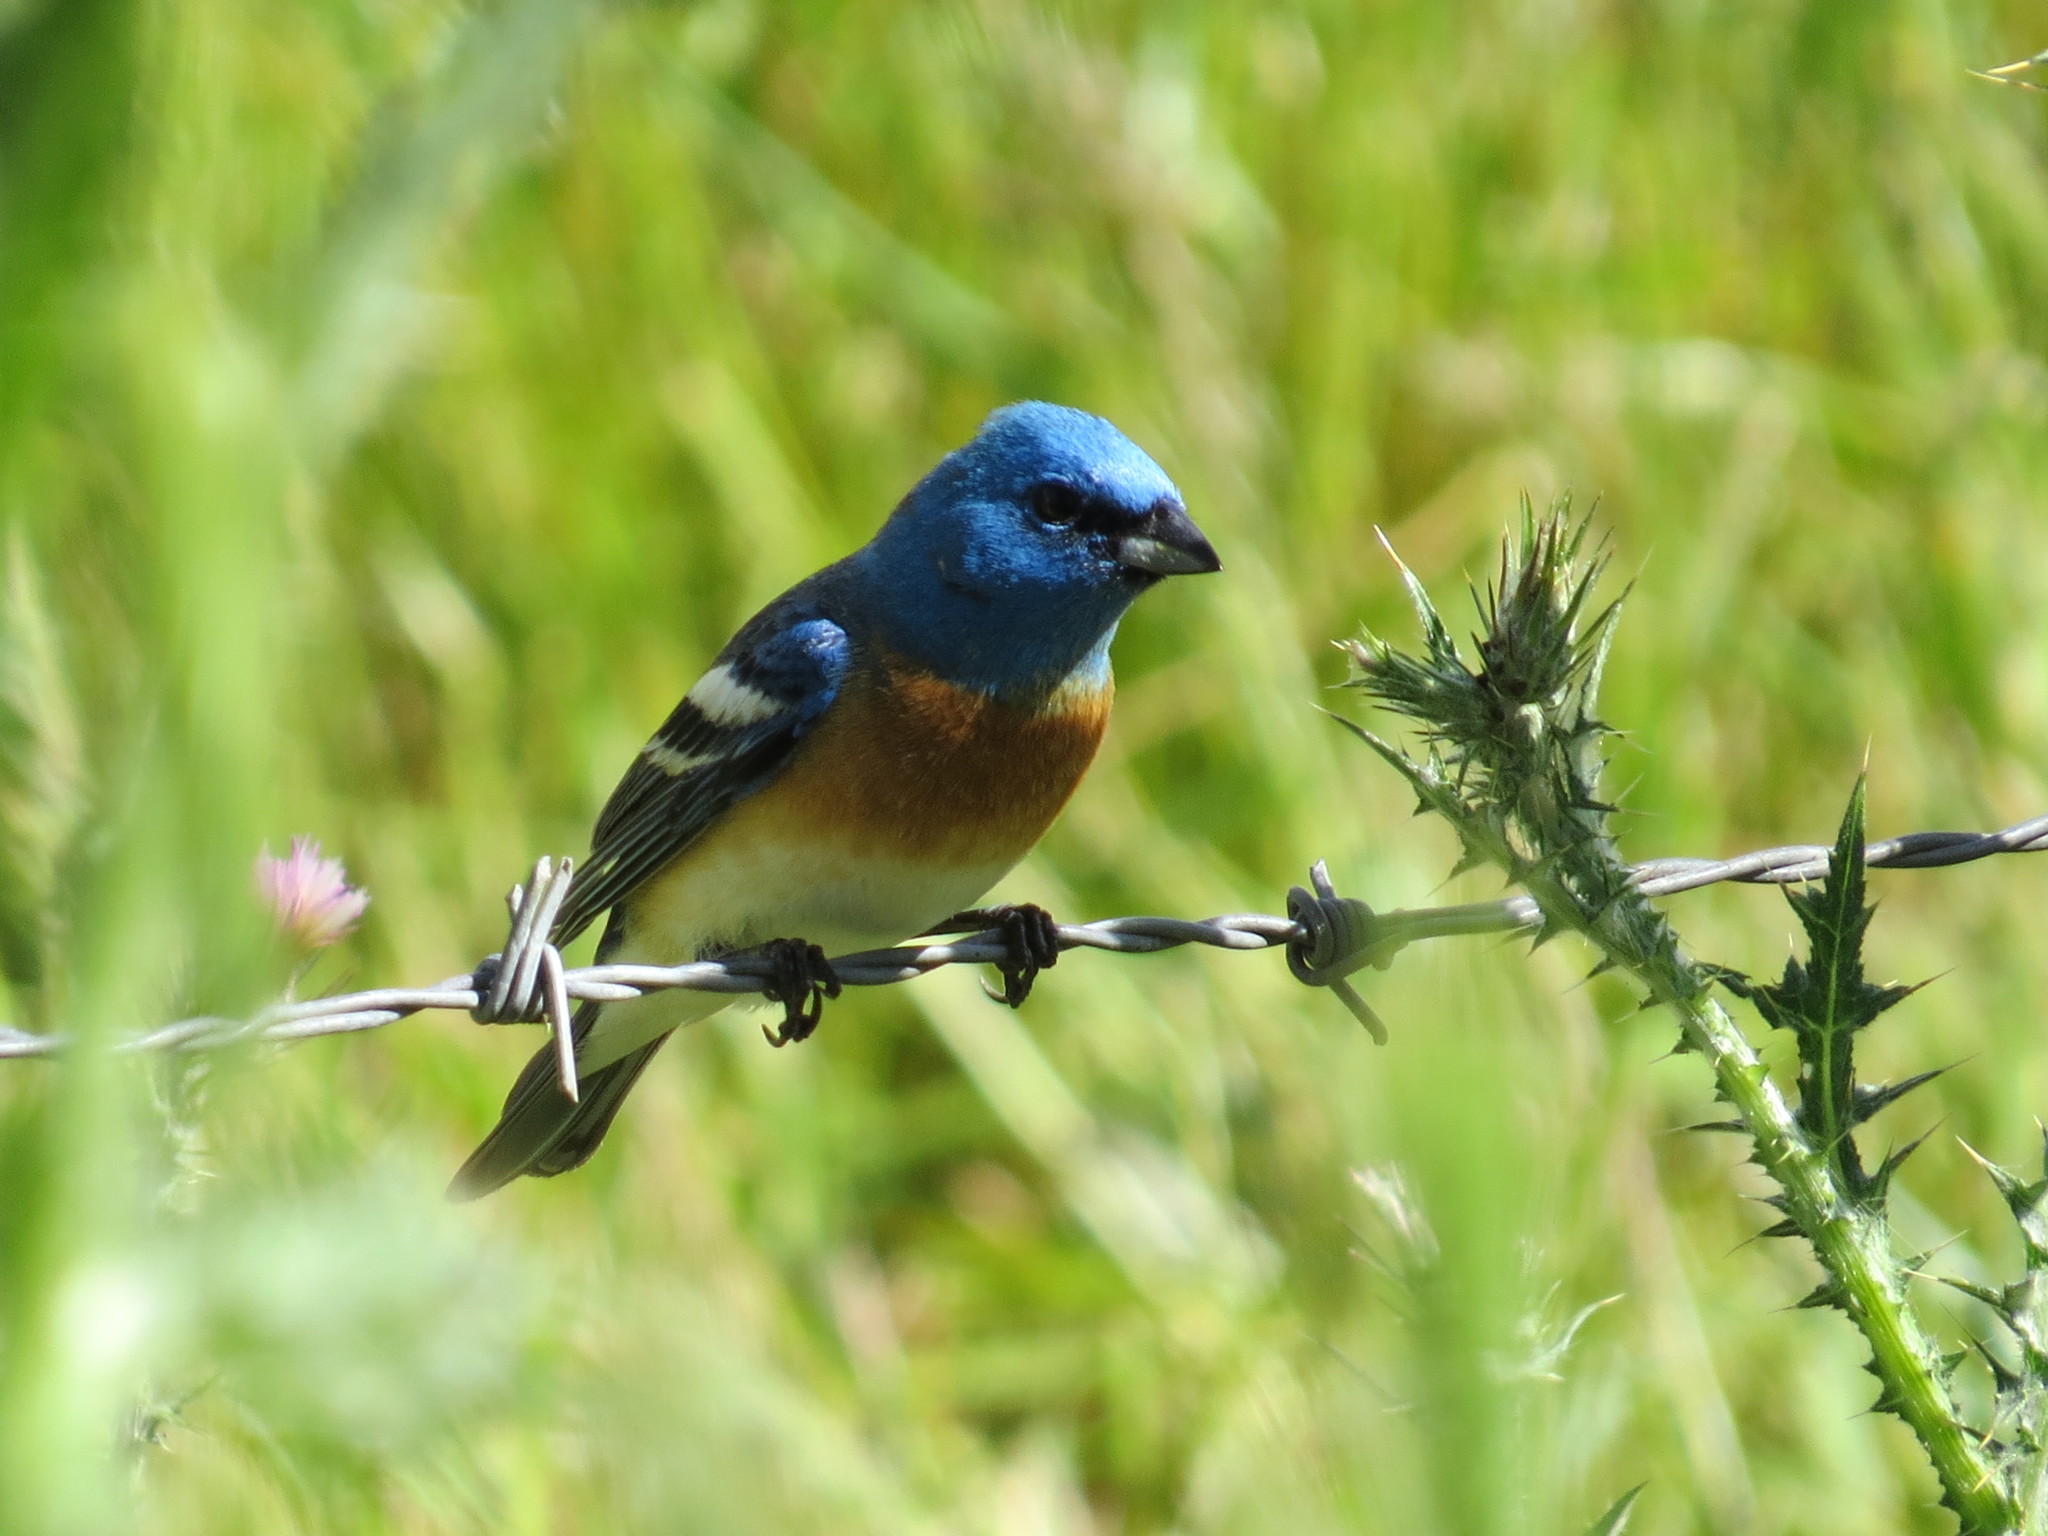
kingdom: Animalia
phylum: Chordata
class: Aves
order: Passeriformes
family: Cardinalidae
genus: Passerina
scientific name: Passerina amoena
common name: Lazuli bunting
